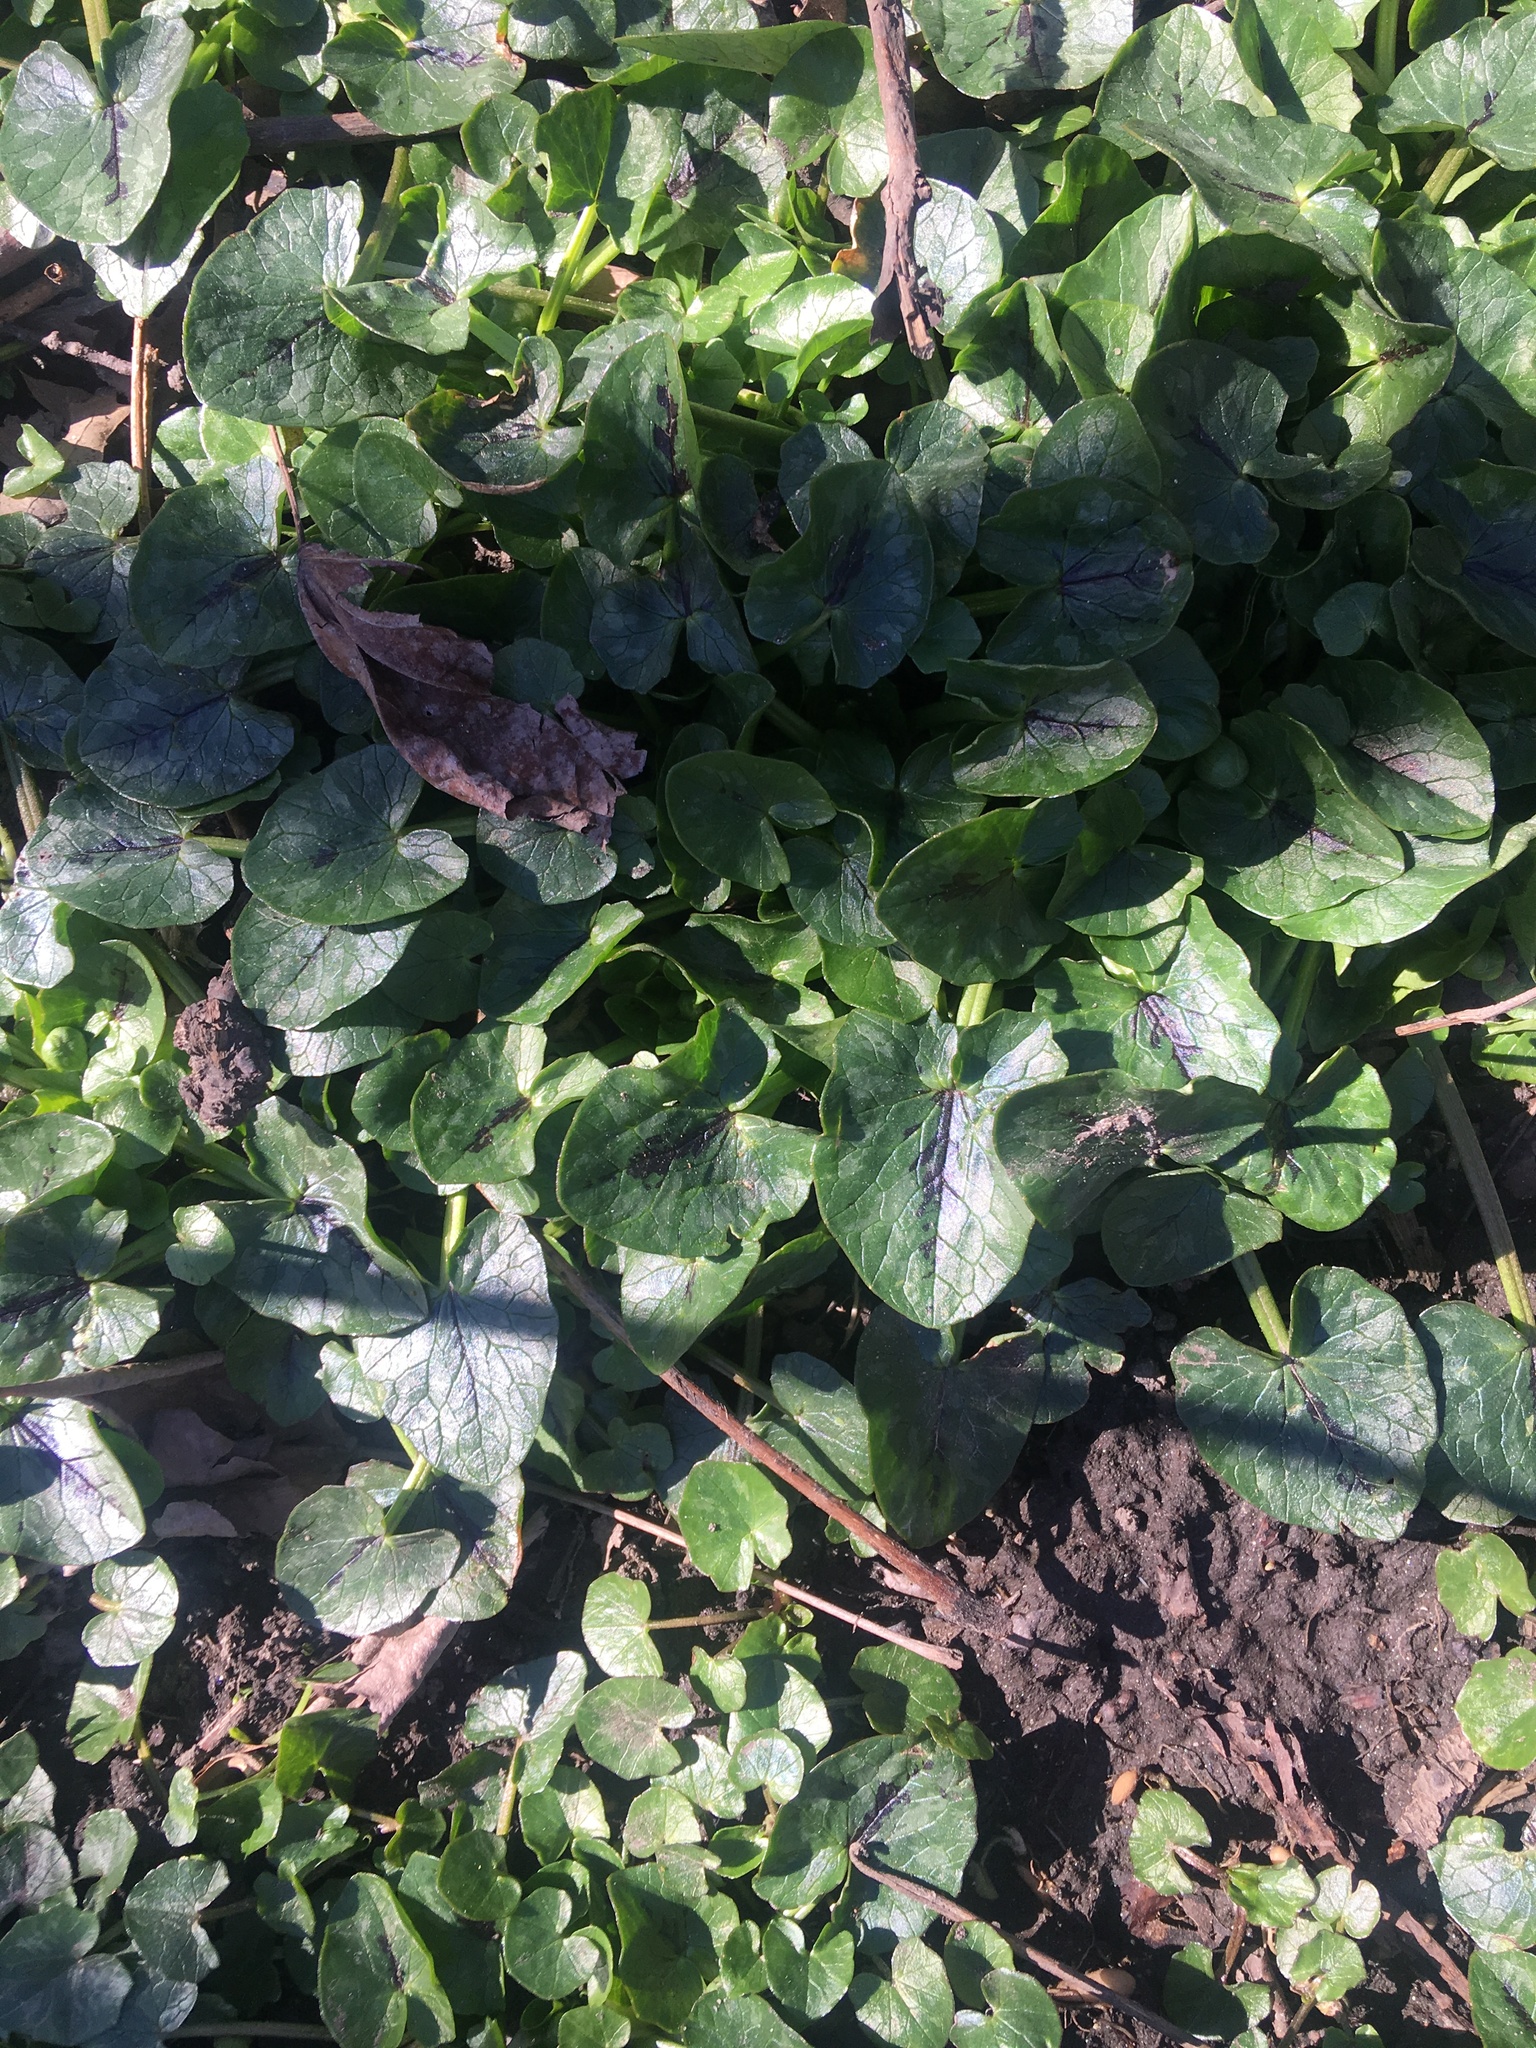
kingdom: Plantae
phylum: Tracheophyta
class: Magnoliopsida
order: Ranunculales
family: Ranunculaceae
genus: Ficaria
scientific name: Ficaria verna
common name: Lesser celandine
